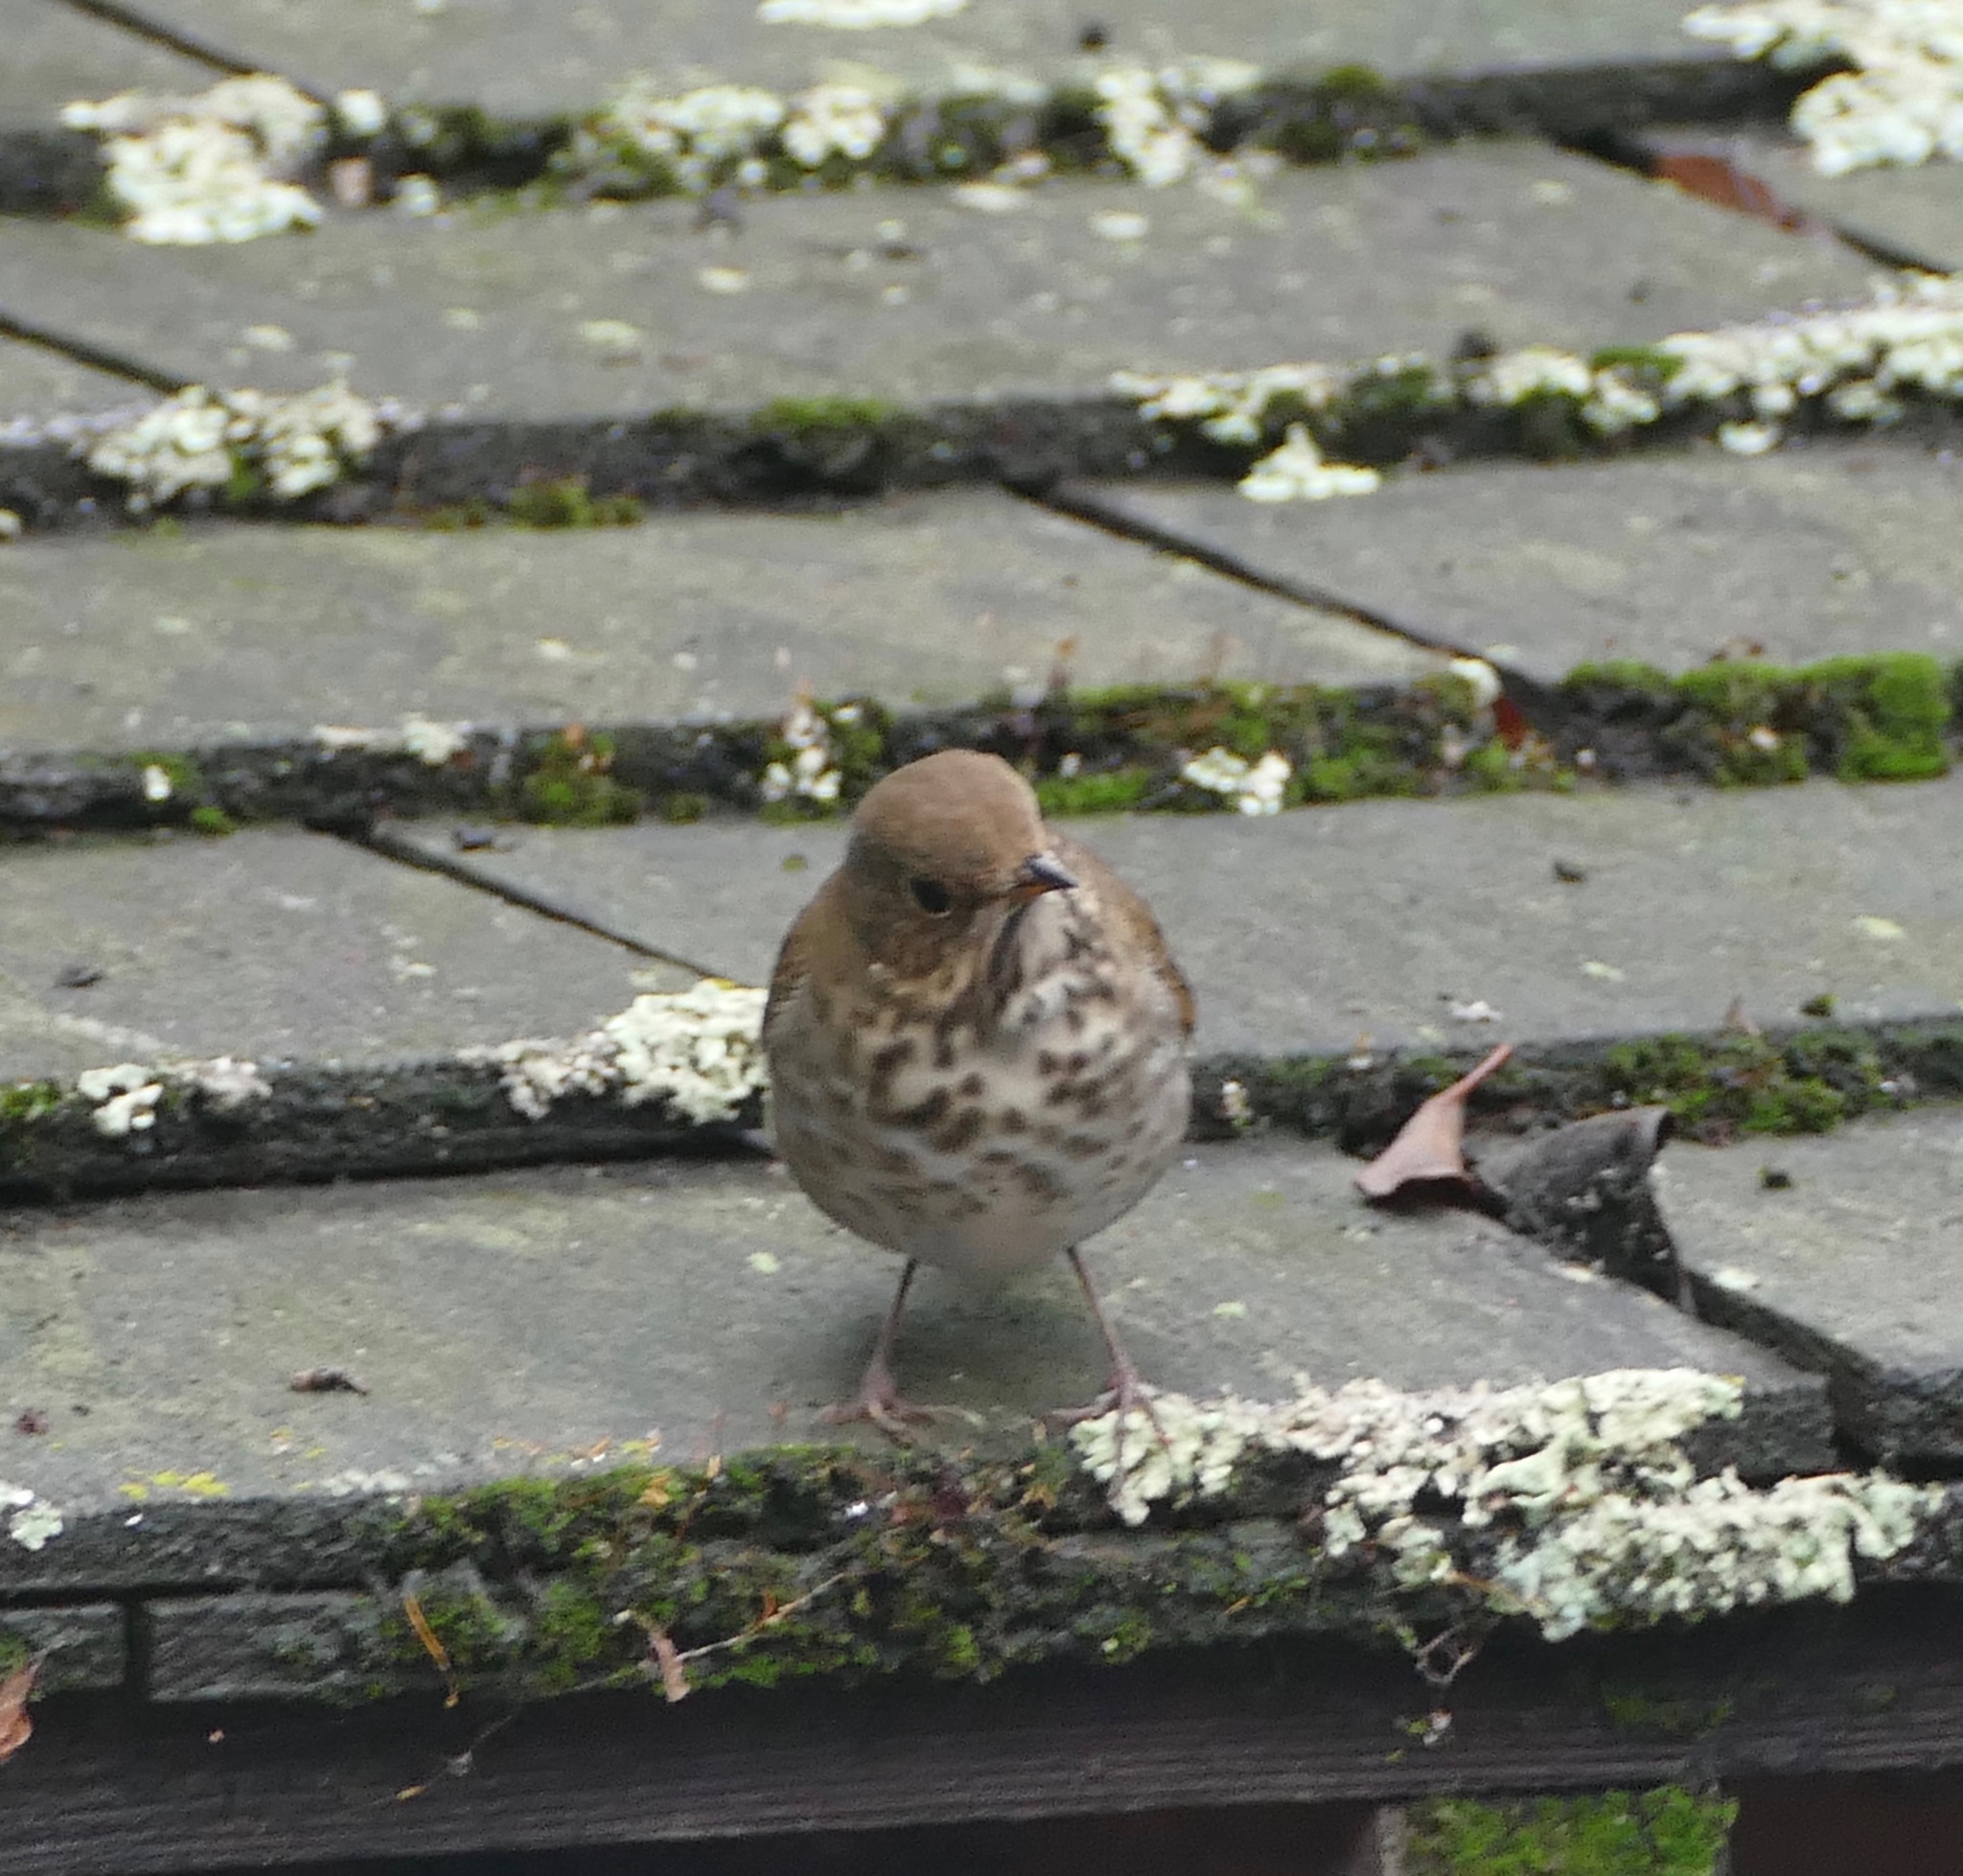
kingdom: Animalia
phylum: Chordata
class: Aves
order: Passeriformes
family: Turdidae
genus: Catharus
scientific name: Catharus guttatus
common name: Hermit thrush
